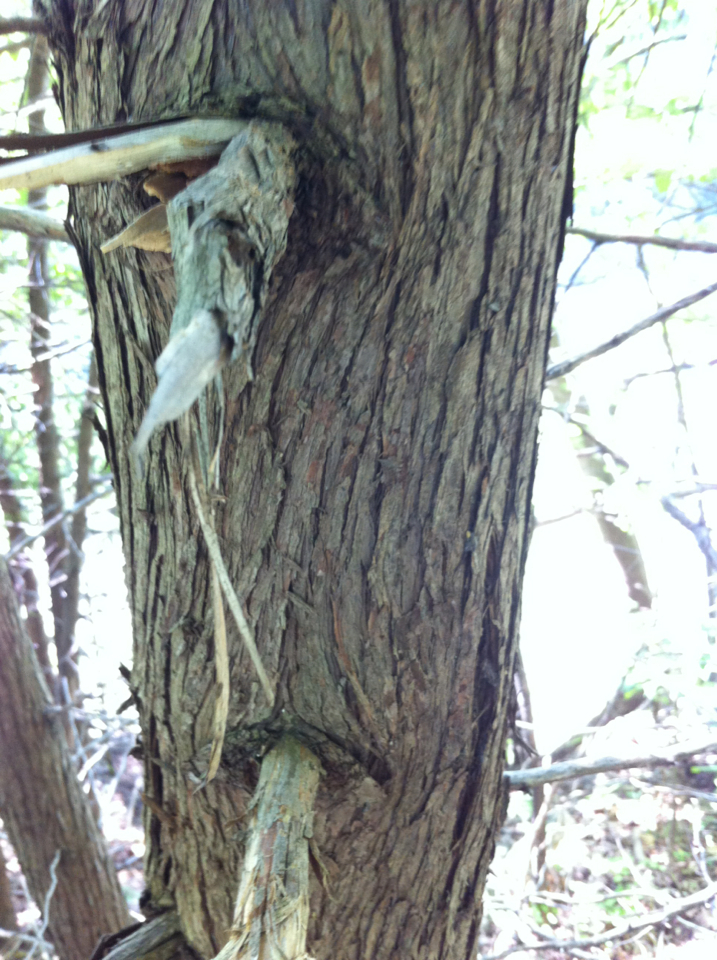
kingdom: Plantae
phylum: Tracheophyta
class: Pinopsida
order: Pinales
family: Cupressaceae
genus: Thuja
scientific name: Thuja occidentalis
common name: Northern white-cedar
